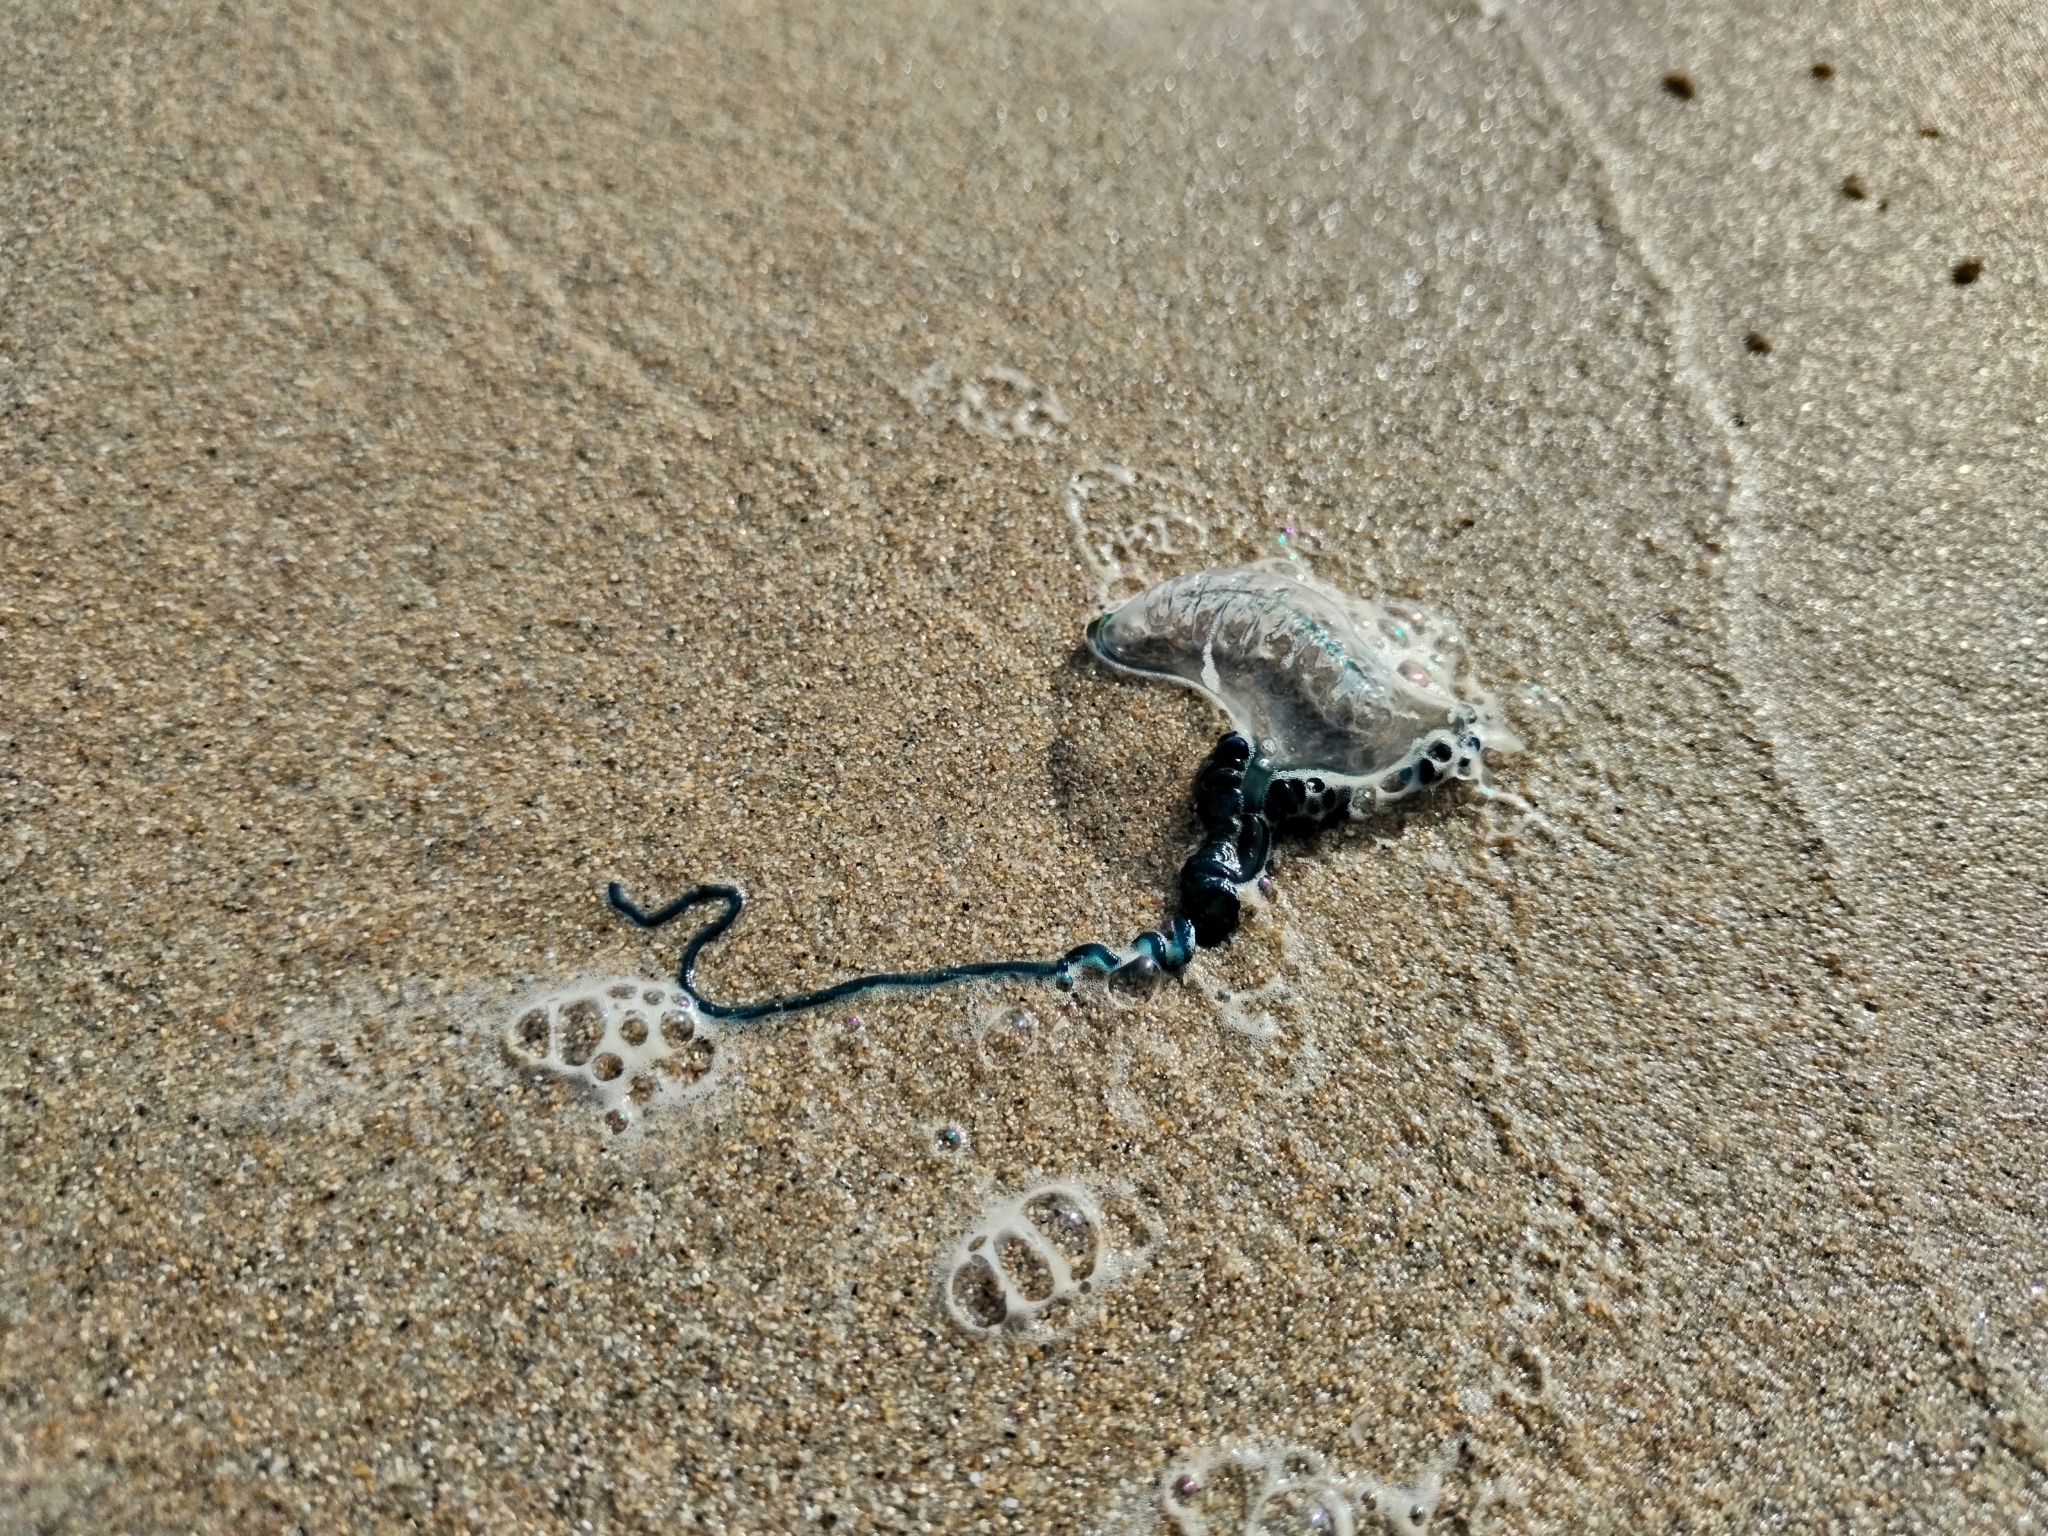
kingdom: Animalia
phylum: Cnidaria
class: Hydrozoa
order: Siphonophorae
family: Physaliidae
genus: Physalia
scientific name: Physalia physalis
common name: Portuguese man-of-war
